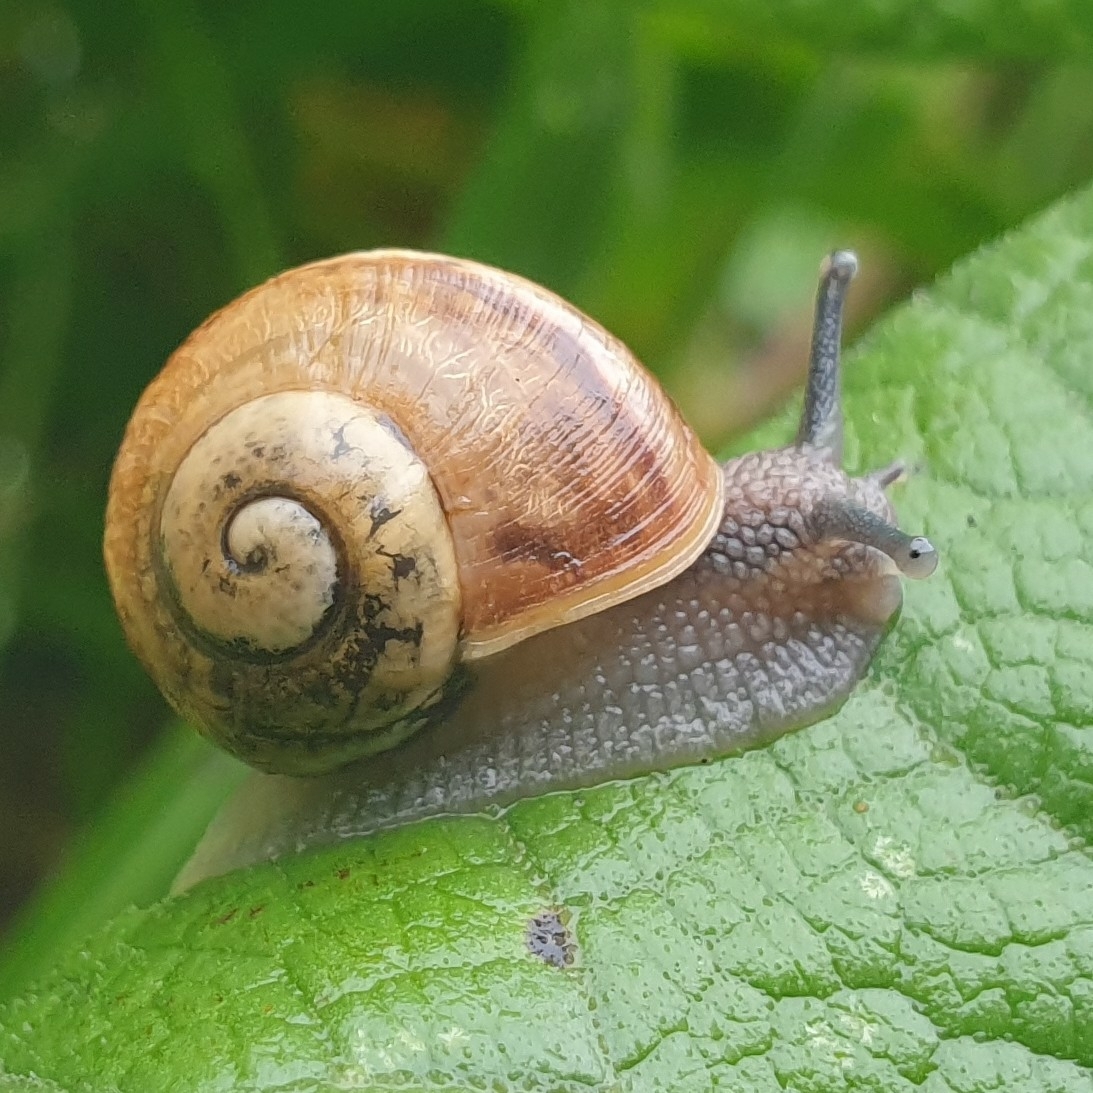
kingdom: Animalia
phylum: Mollusca
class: Gastropoda
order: Stylommatophora
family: Helicidae
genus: Helix
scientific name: Helix pomatia
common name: Roman snail
